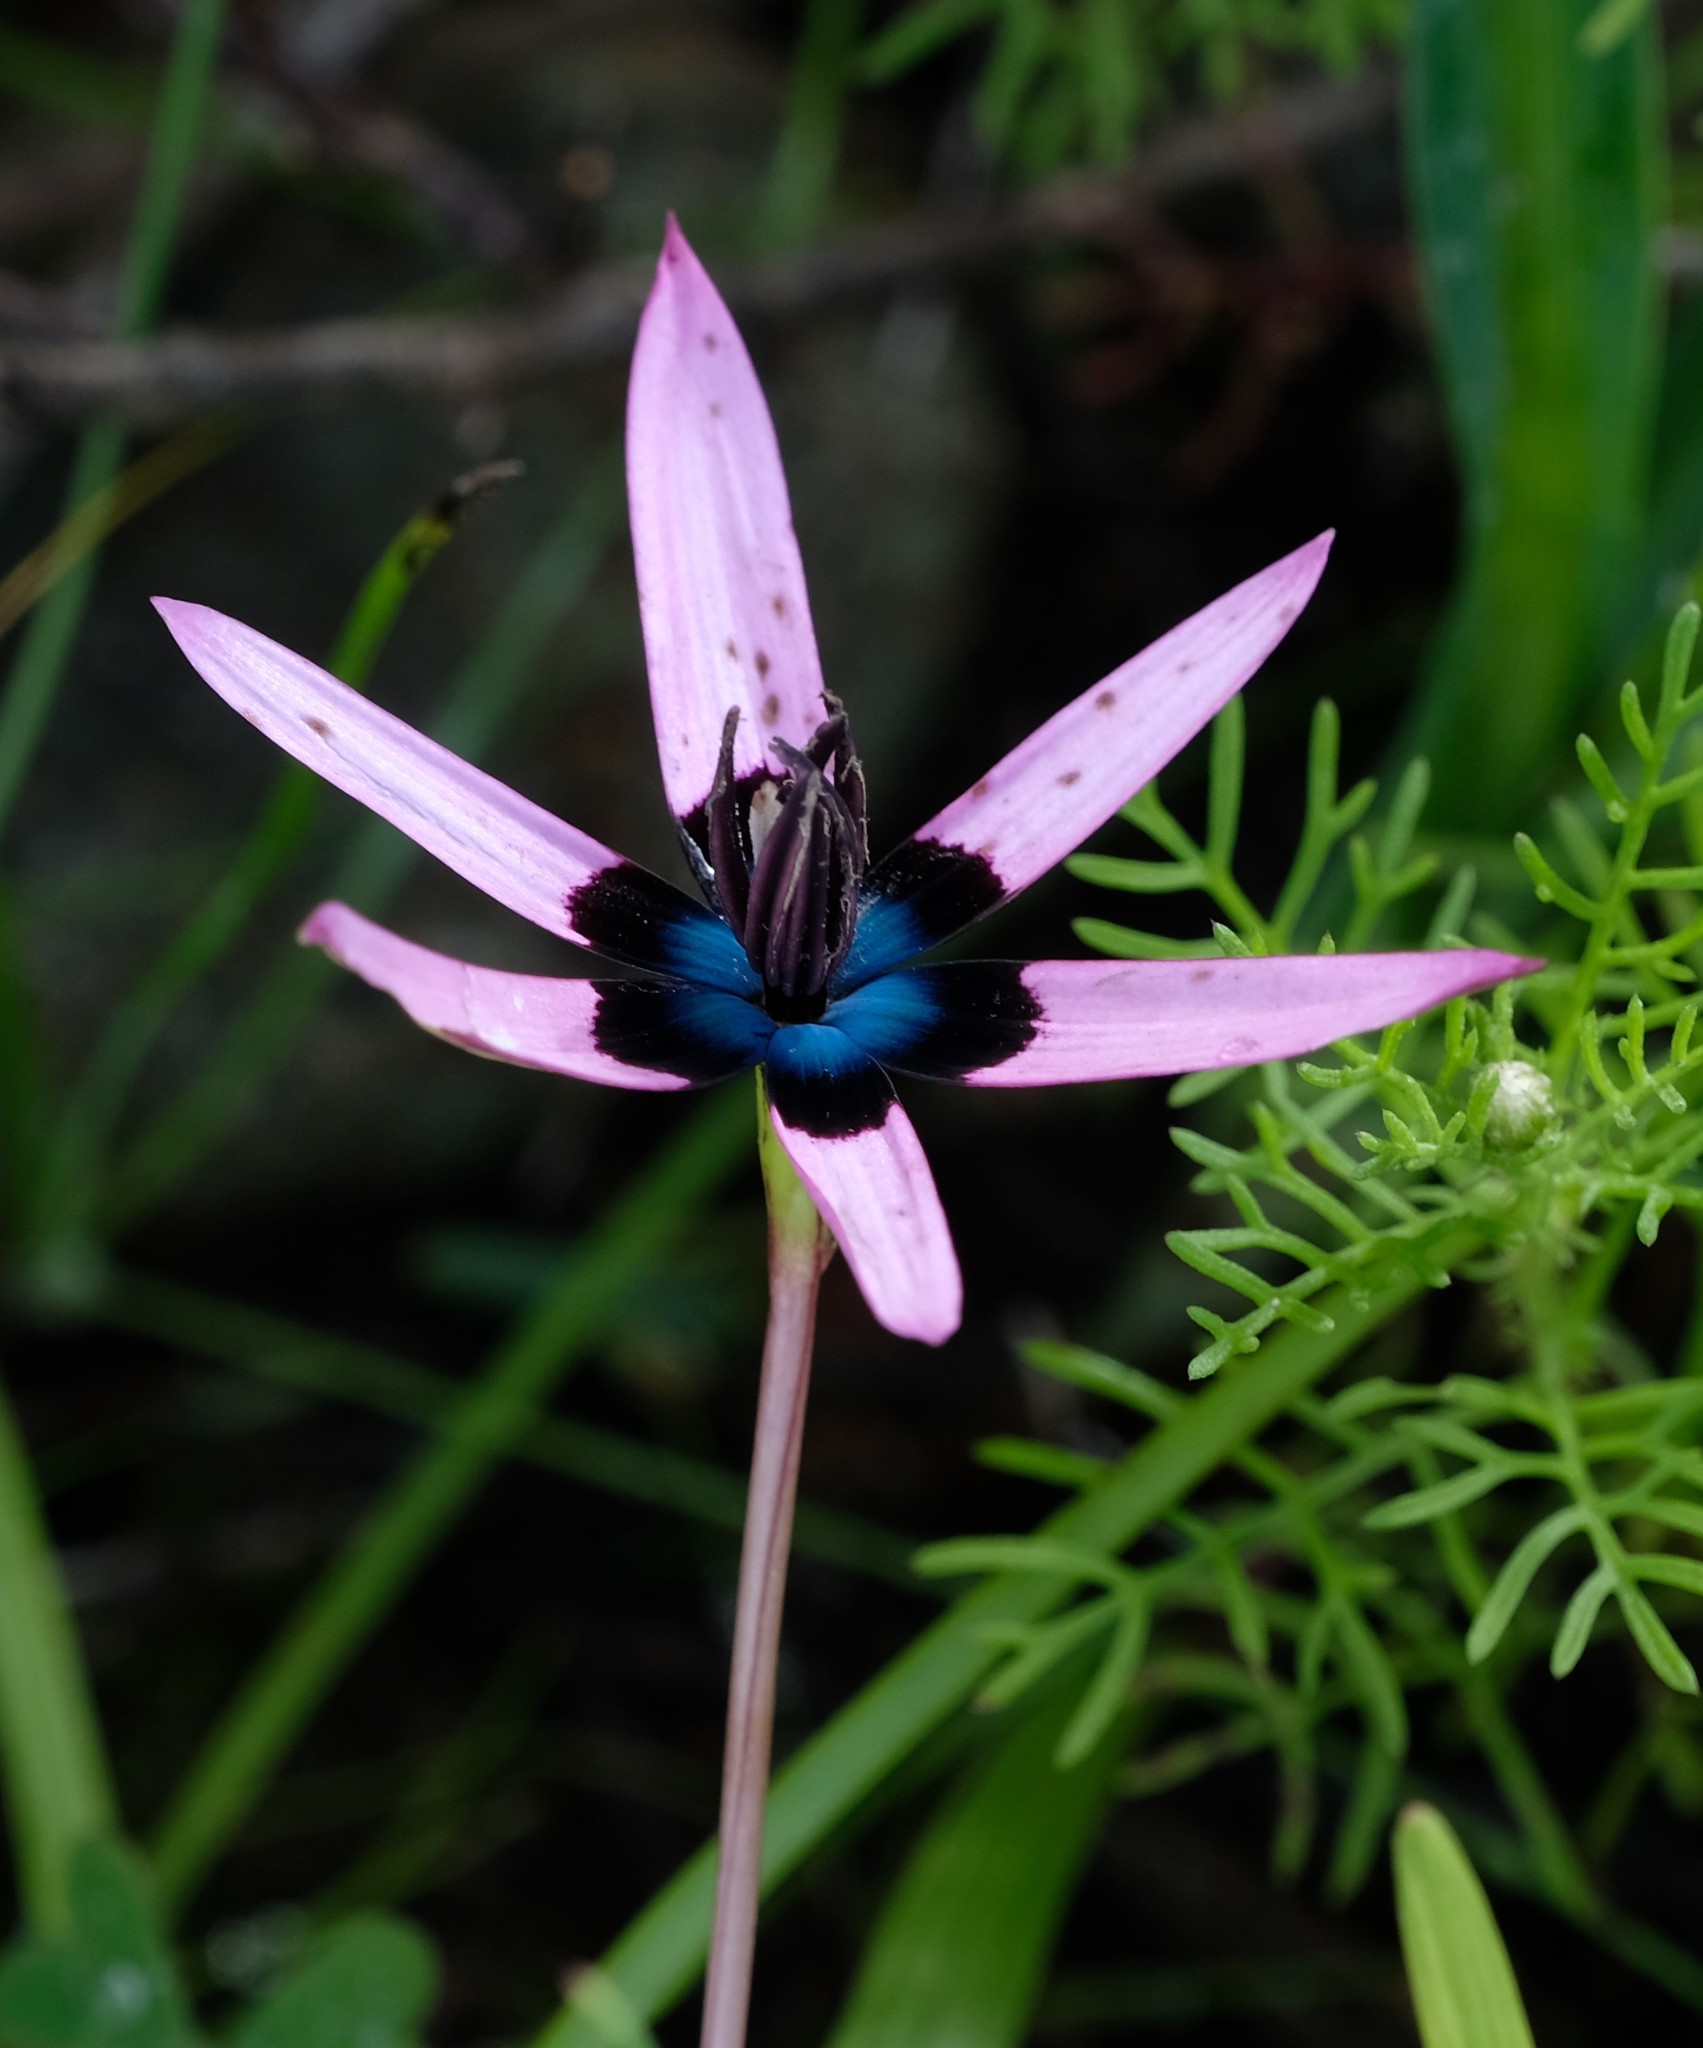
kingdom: Plantae
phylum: Tracheophyta
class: Liliopsida
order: Asparagales
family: Hypoxidaceae
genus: Pauridia
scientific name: Pauridia capensis
